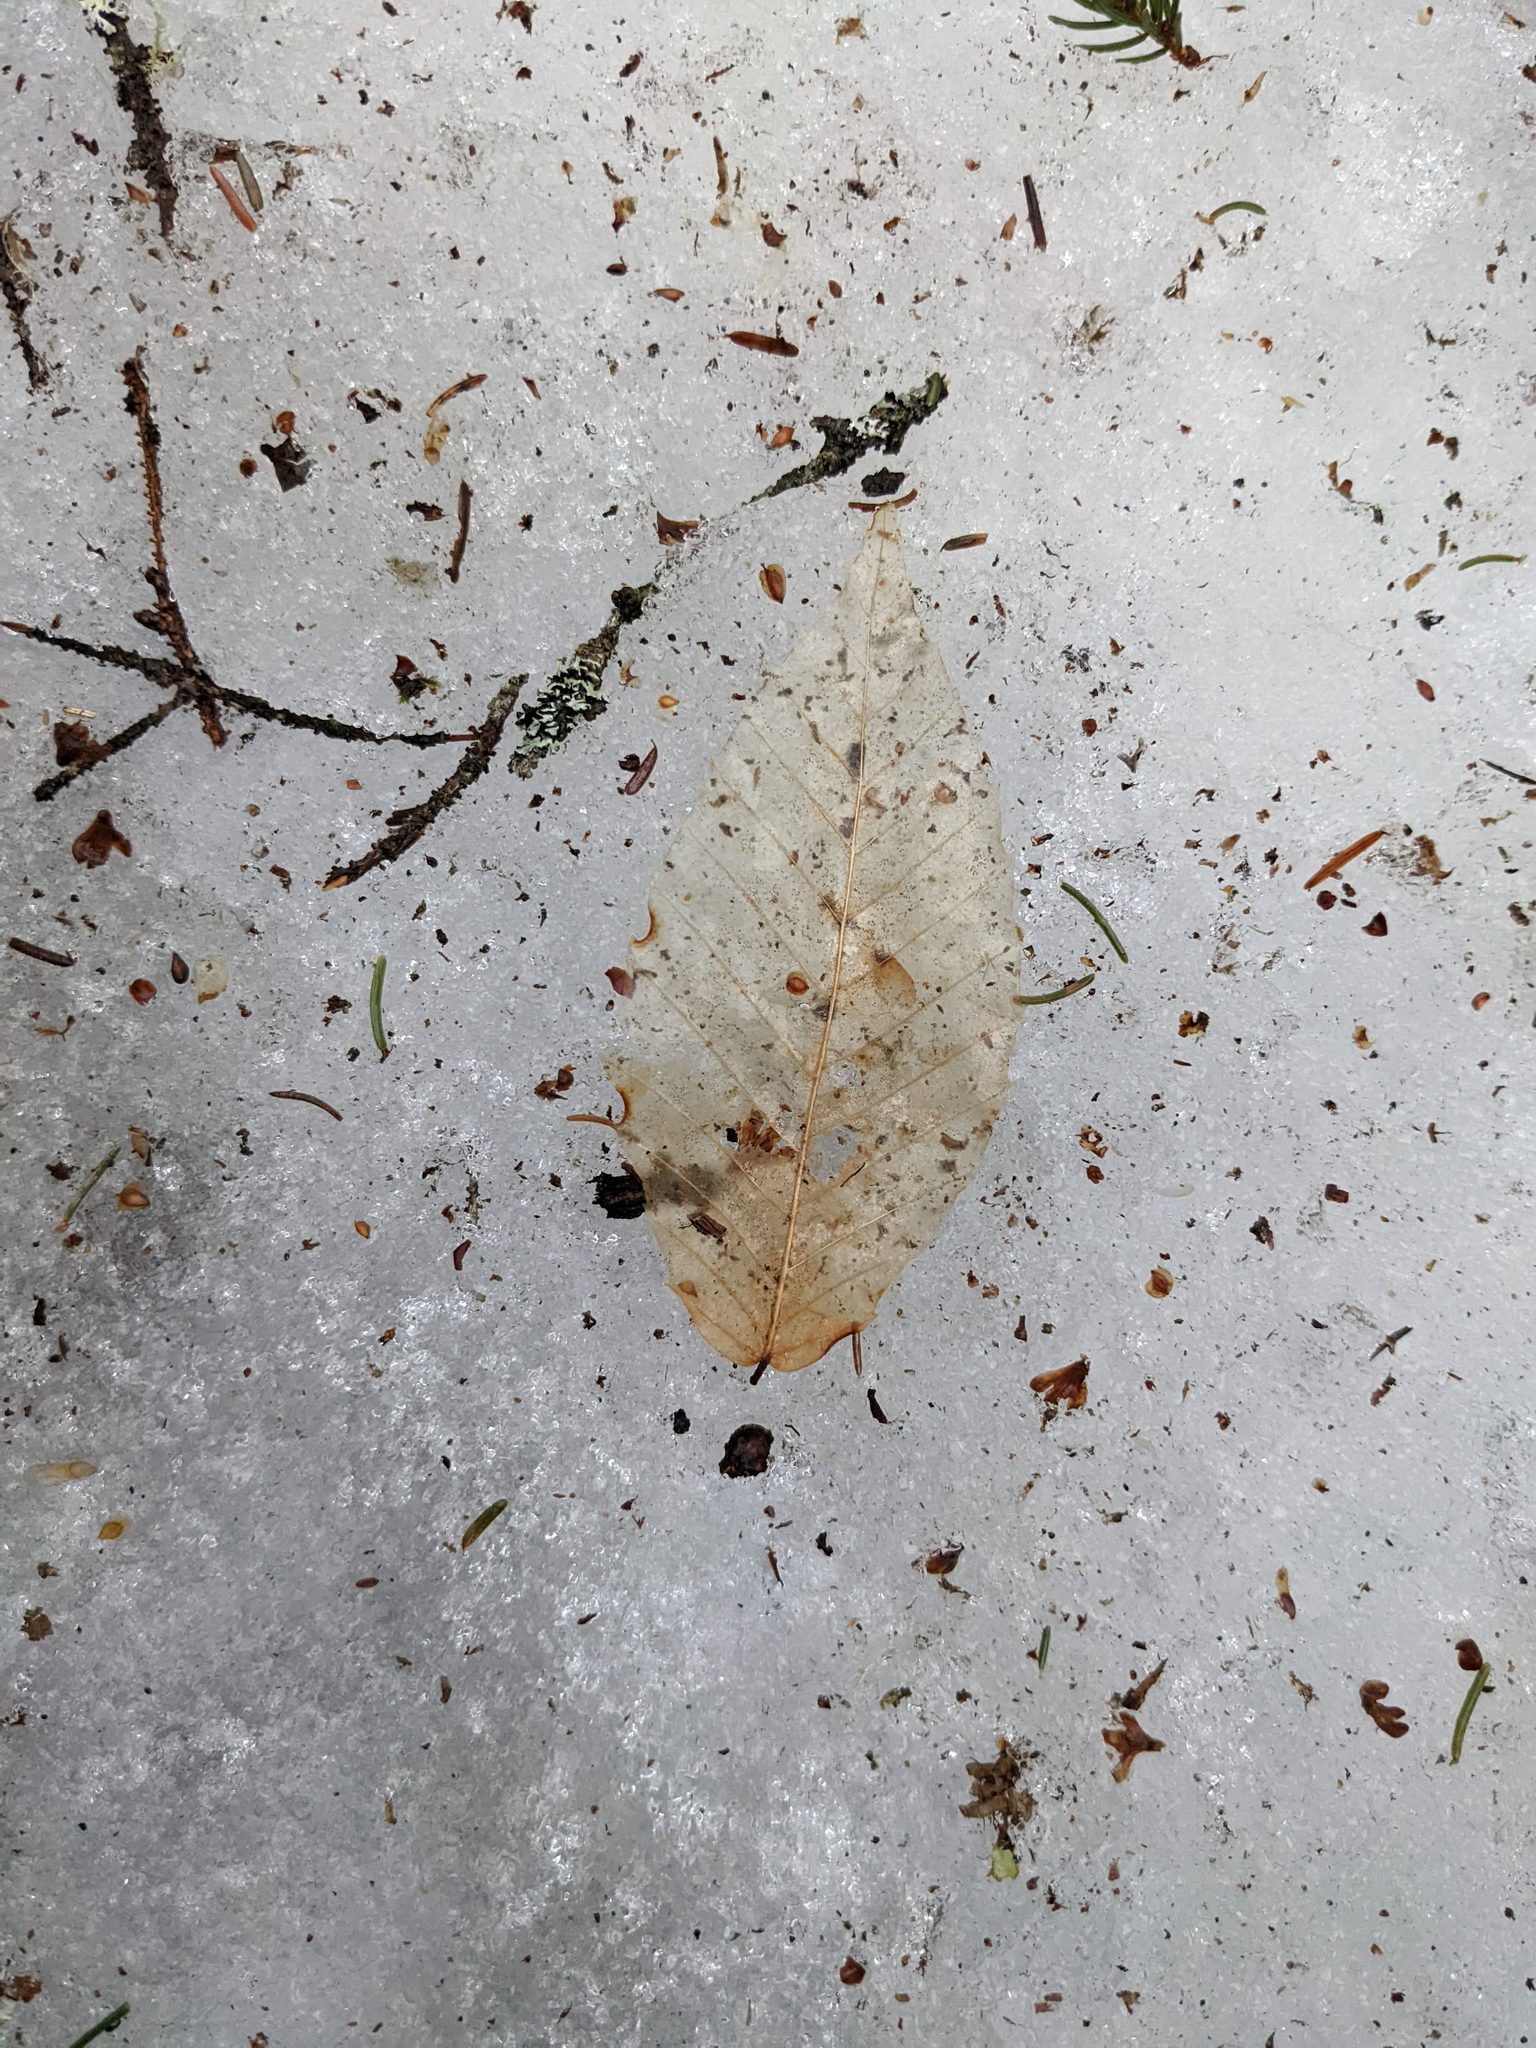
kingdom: Plantae
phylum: Tracheophyta
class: Magnoliopsida
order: Fagales
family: Fagaceae
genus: Fagus
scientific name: Fagus grandifolia
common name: American beech
